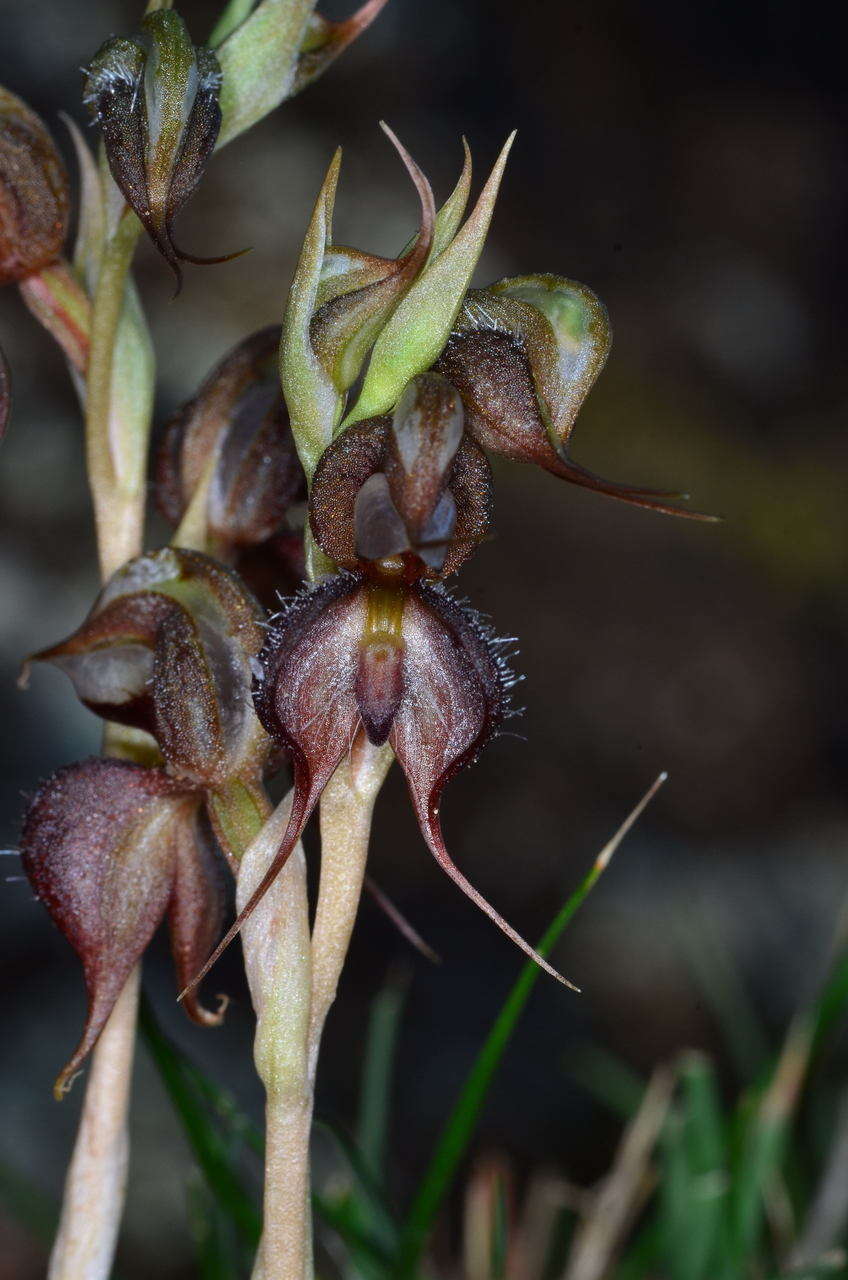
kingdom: Plantae
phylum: Tracheophyta
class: Liliopsida
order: Asparagales
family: Orchidaceae
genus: Pterostylis
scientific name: Pterostylis boormanii
